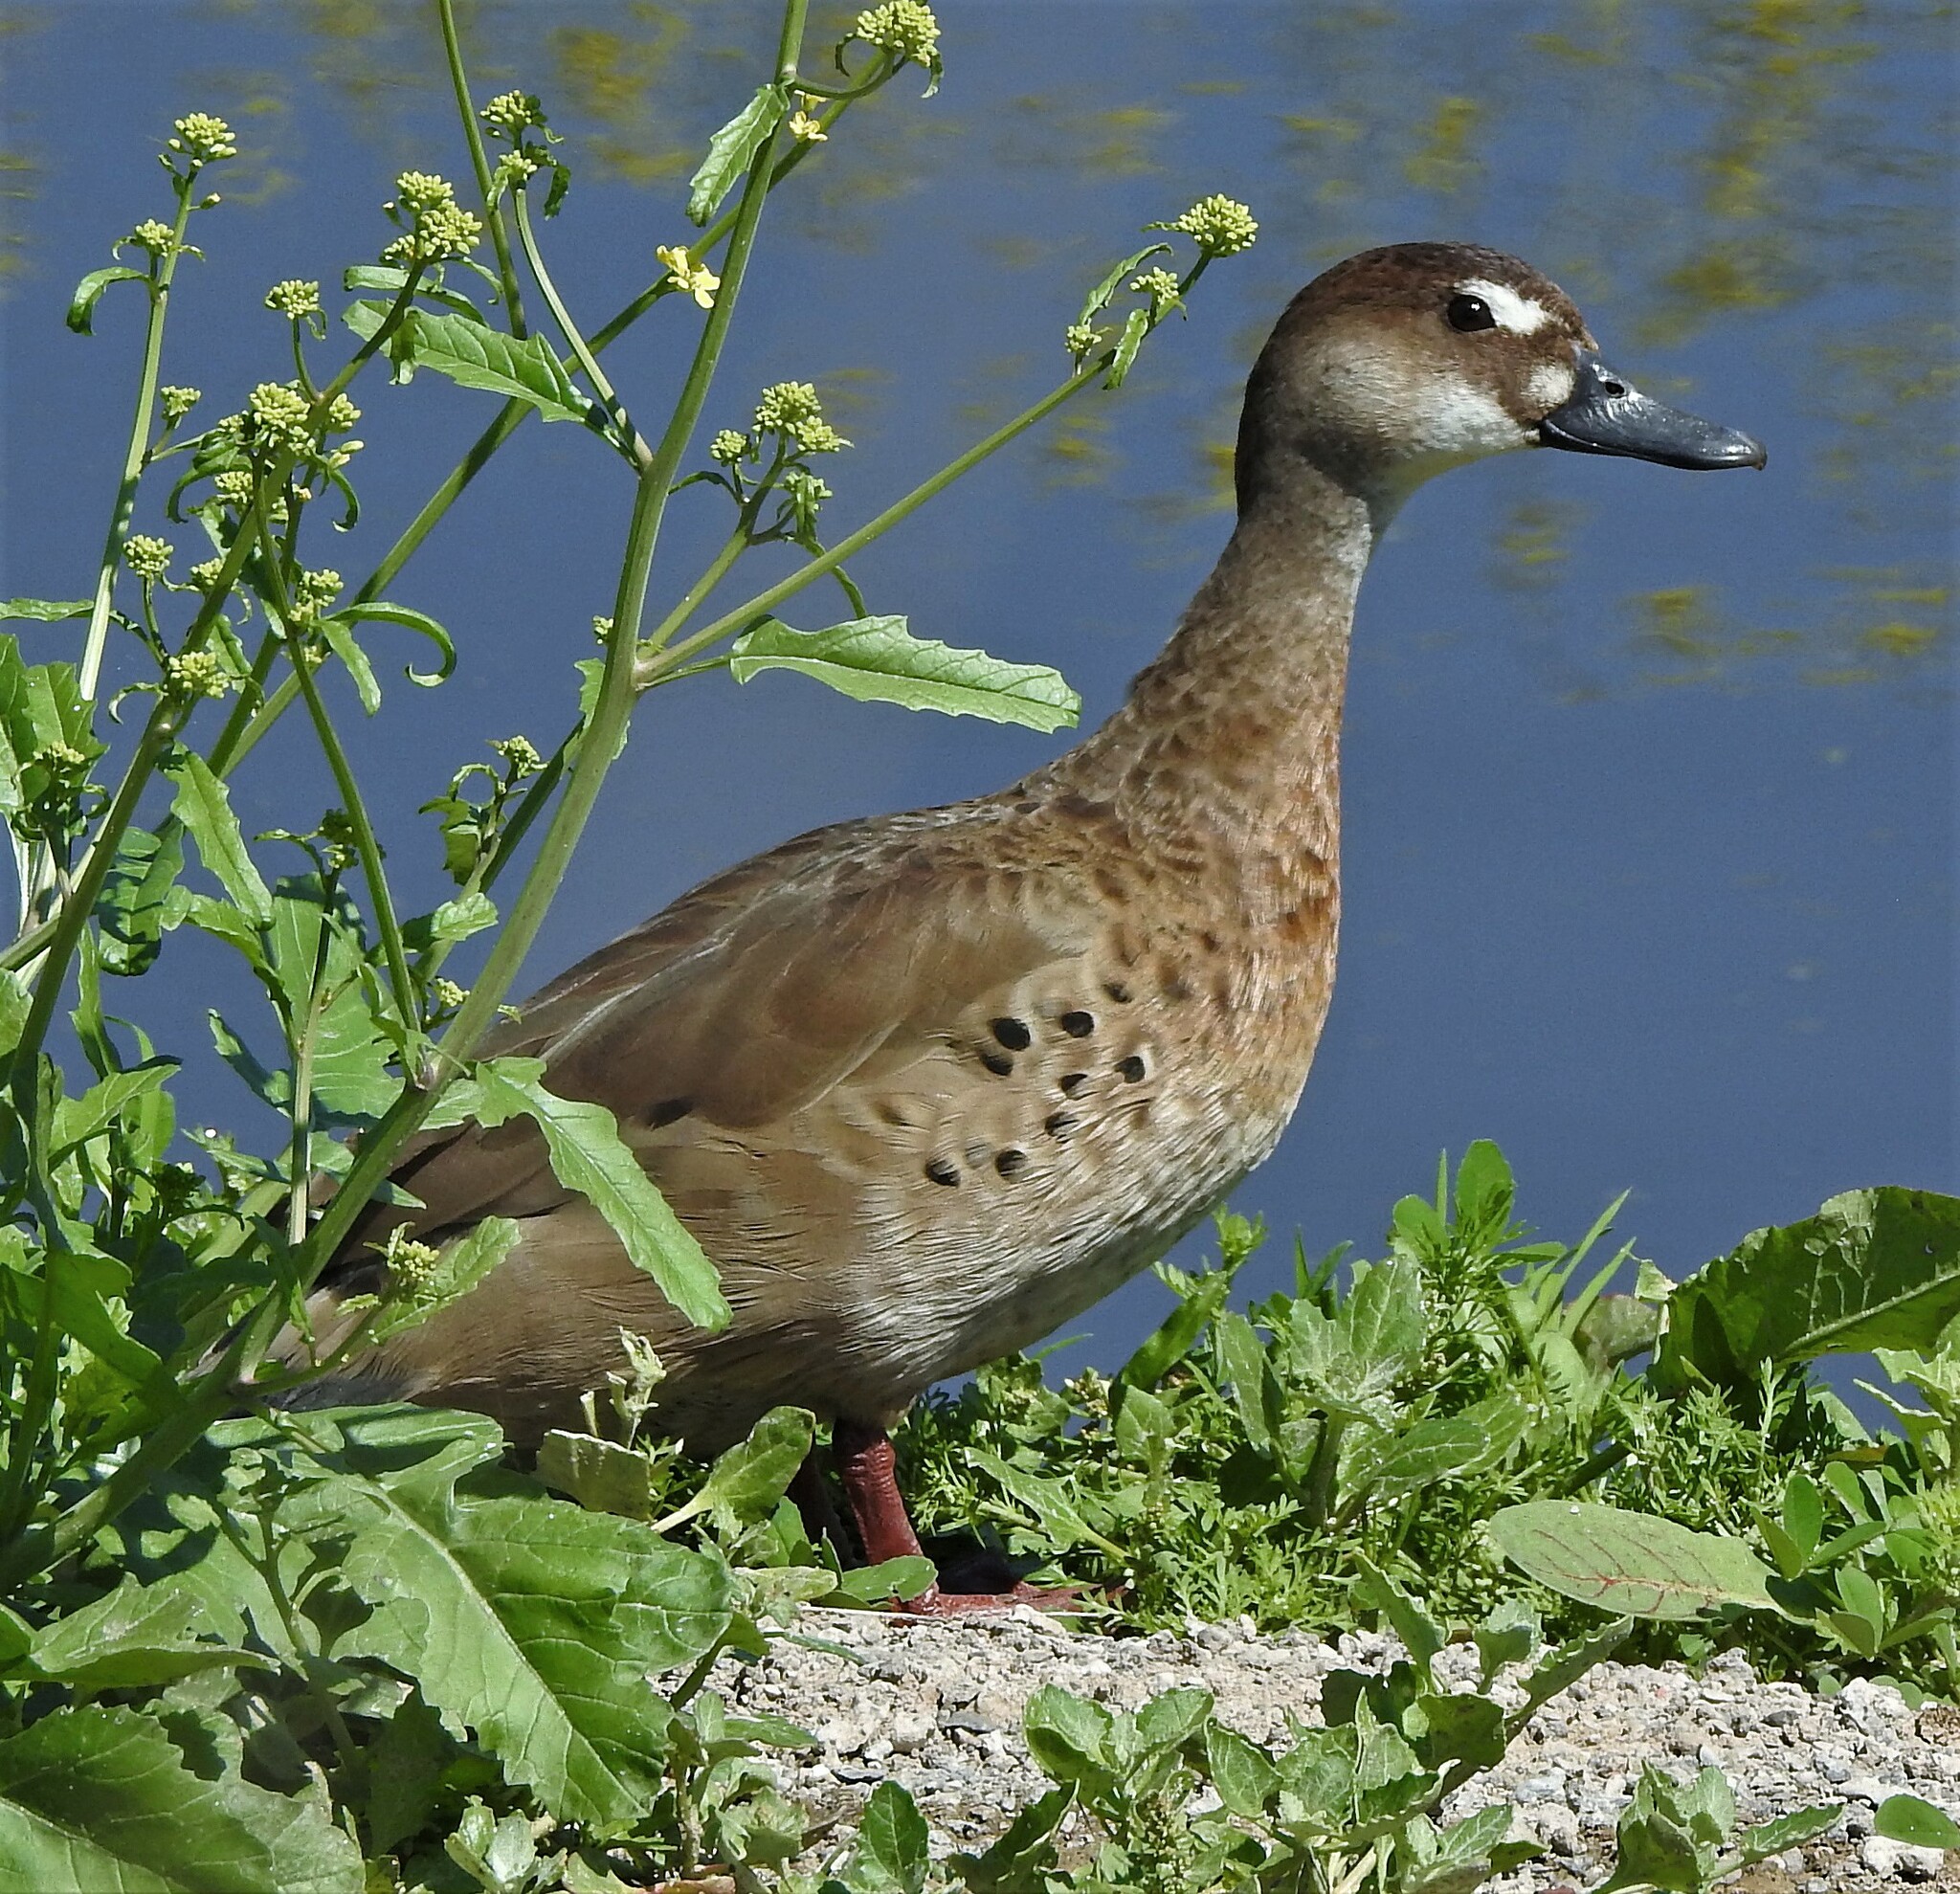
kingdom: Animalia
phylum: Chordata
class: Aves
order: Anseriformes
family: Anatidae
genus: Amazonetta
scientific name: Amazonetta brasiliensis
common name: Brazilian teal
